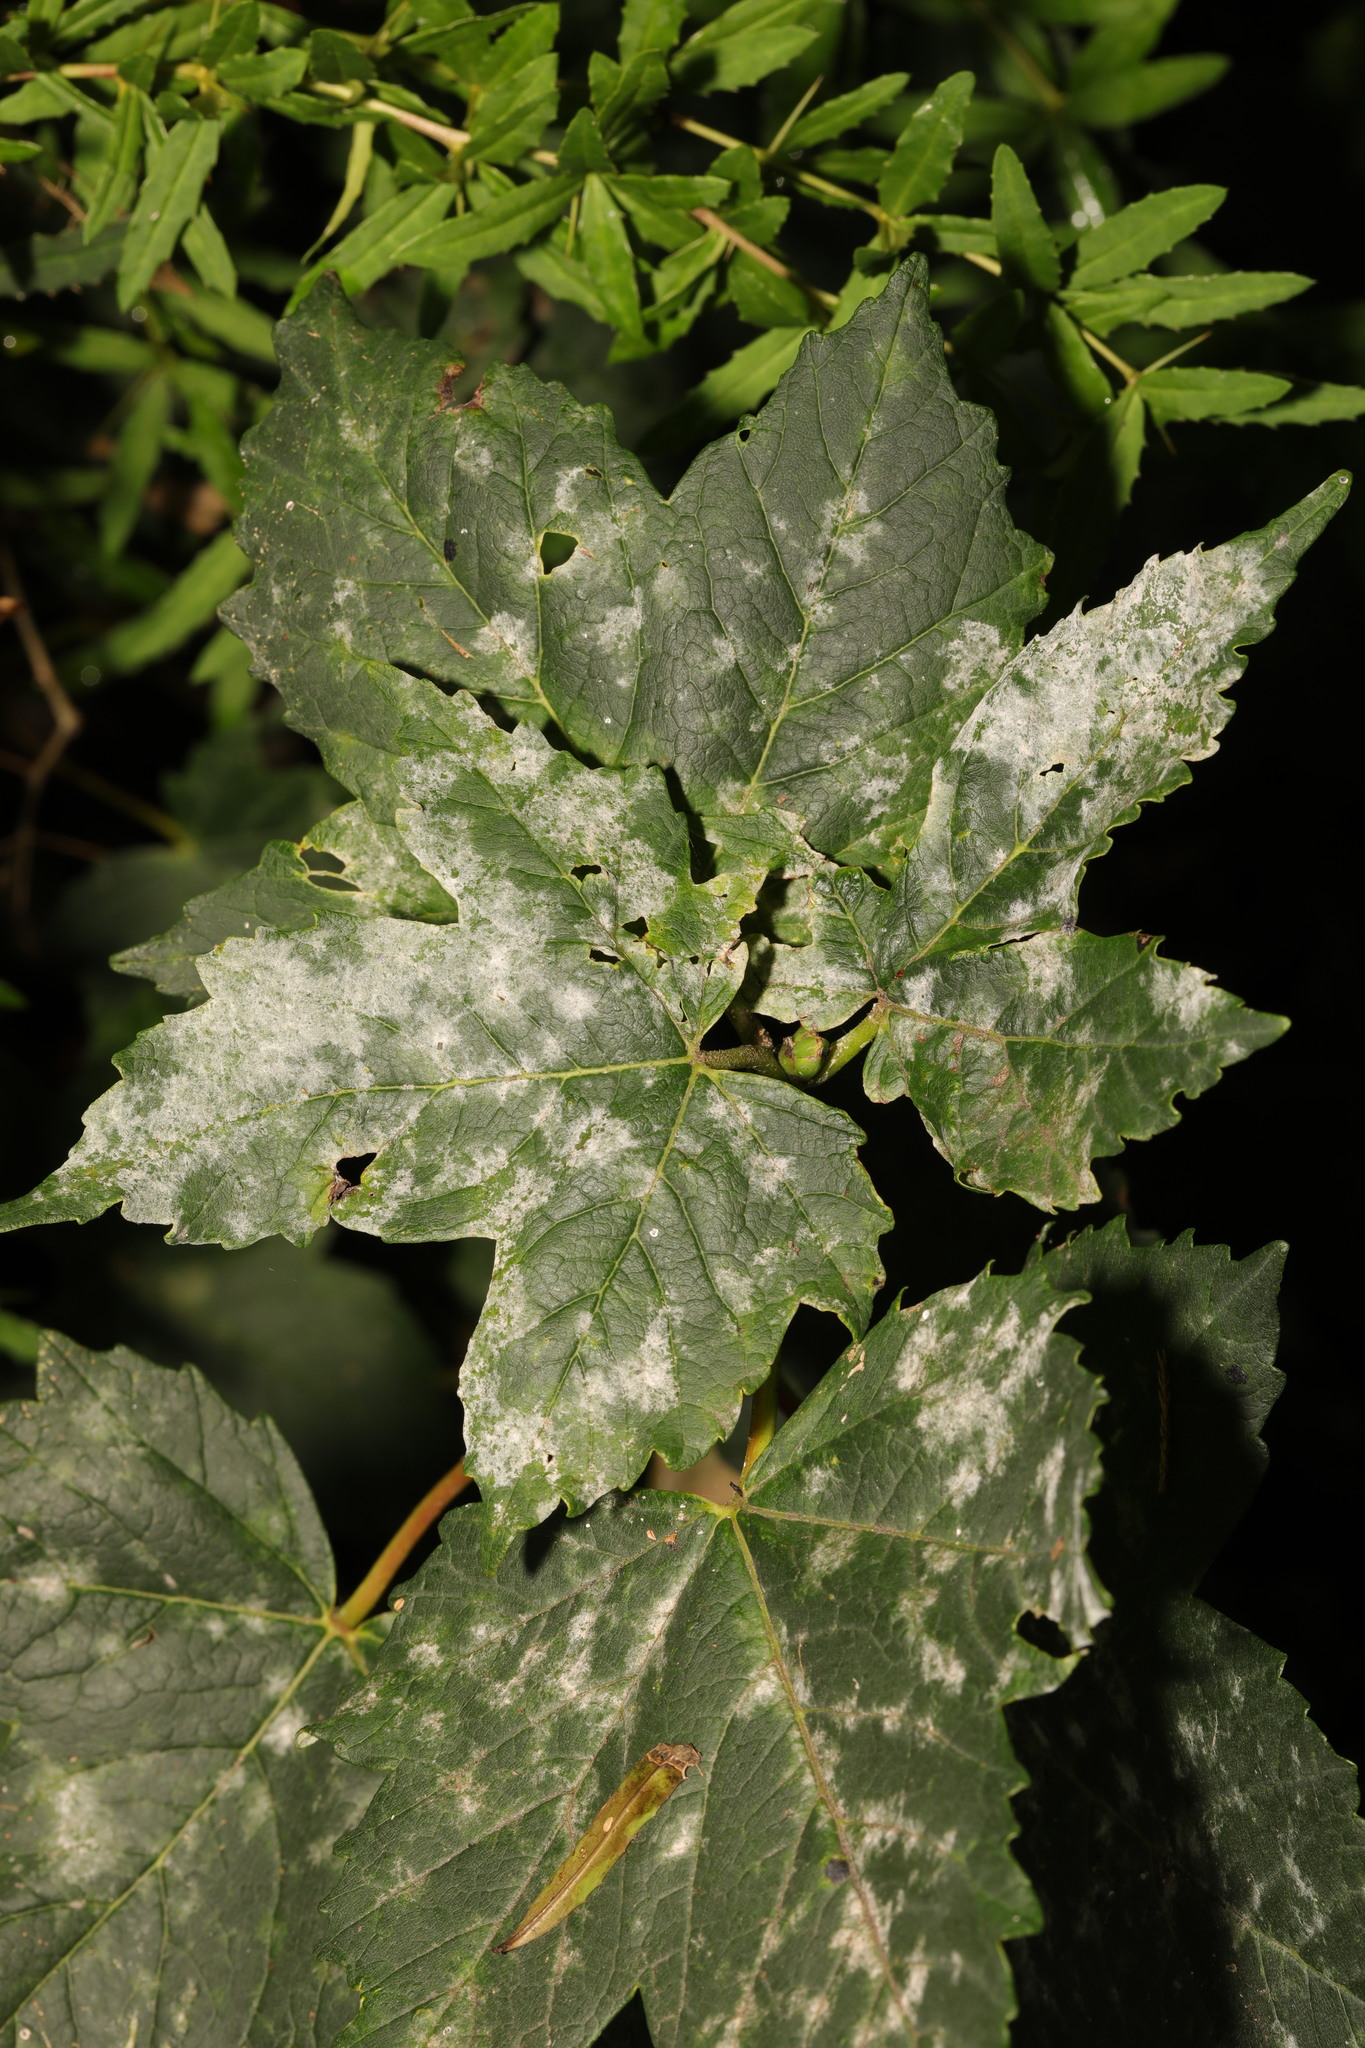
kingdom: Fungi
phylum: Ascomycota
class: Leotiomycetes
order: Helotiales
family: Erysiphaceae
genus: Sawadaea
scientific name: Sawadaea bicornis
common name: Maple mildew
